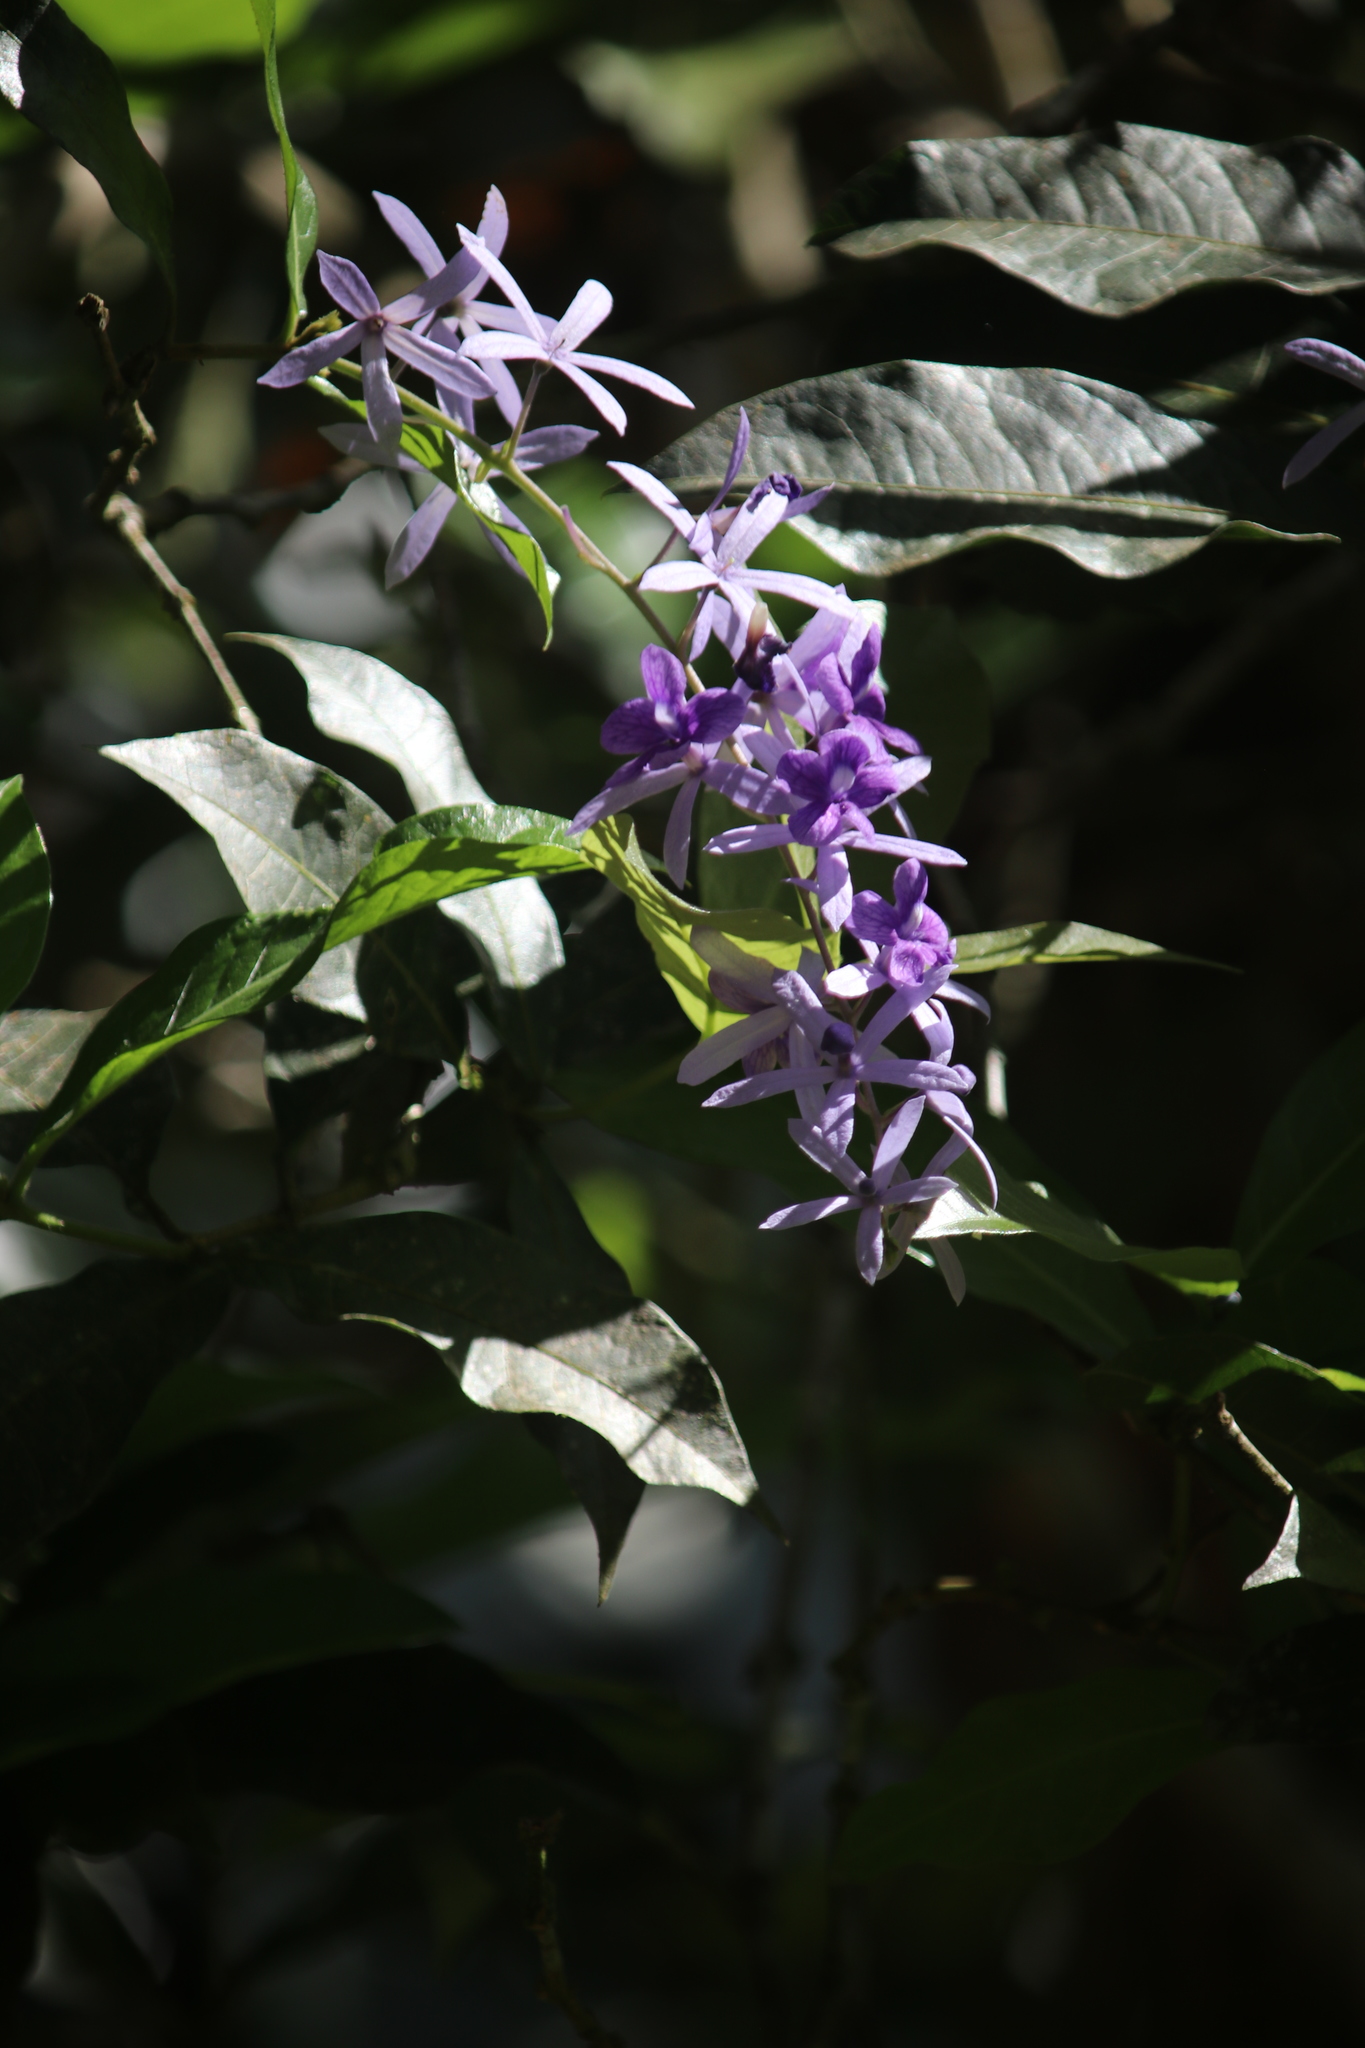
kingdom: Plantae
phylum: Tracheophyta
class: Magnoliopsida
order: Lamiales
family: Verbenaceae
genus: Petrea
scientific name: Petrea volubilis
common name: Queen's-wreath
